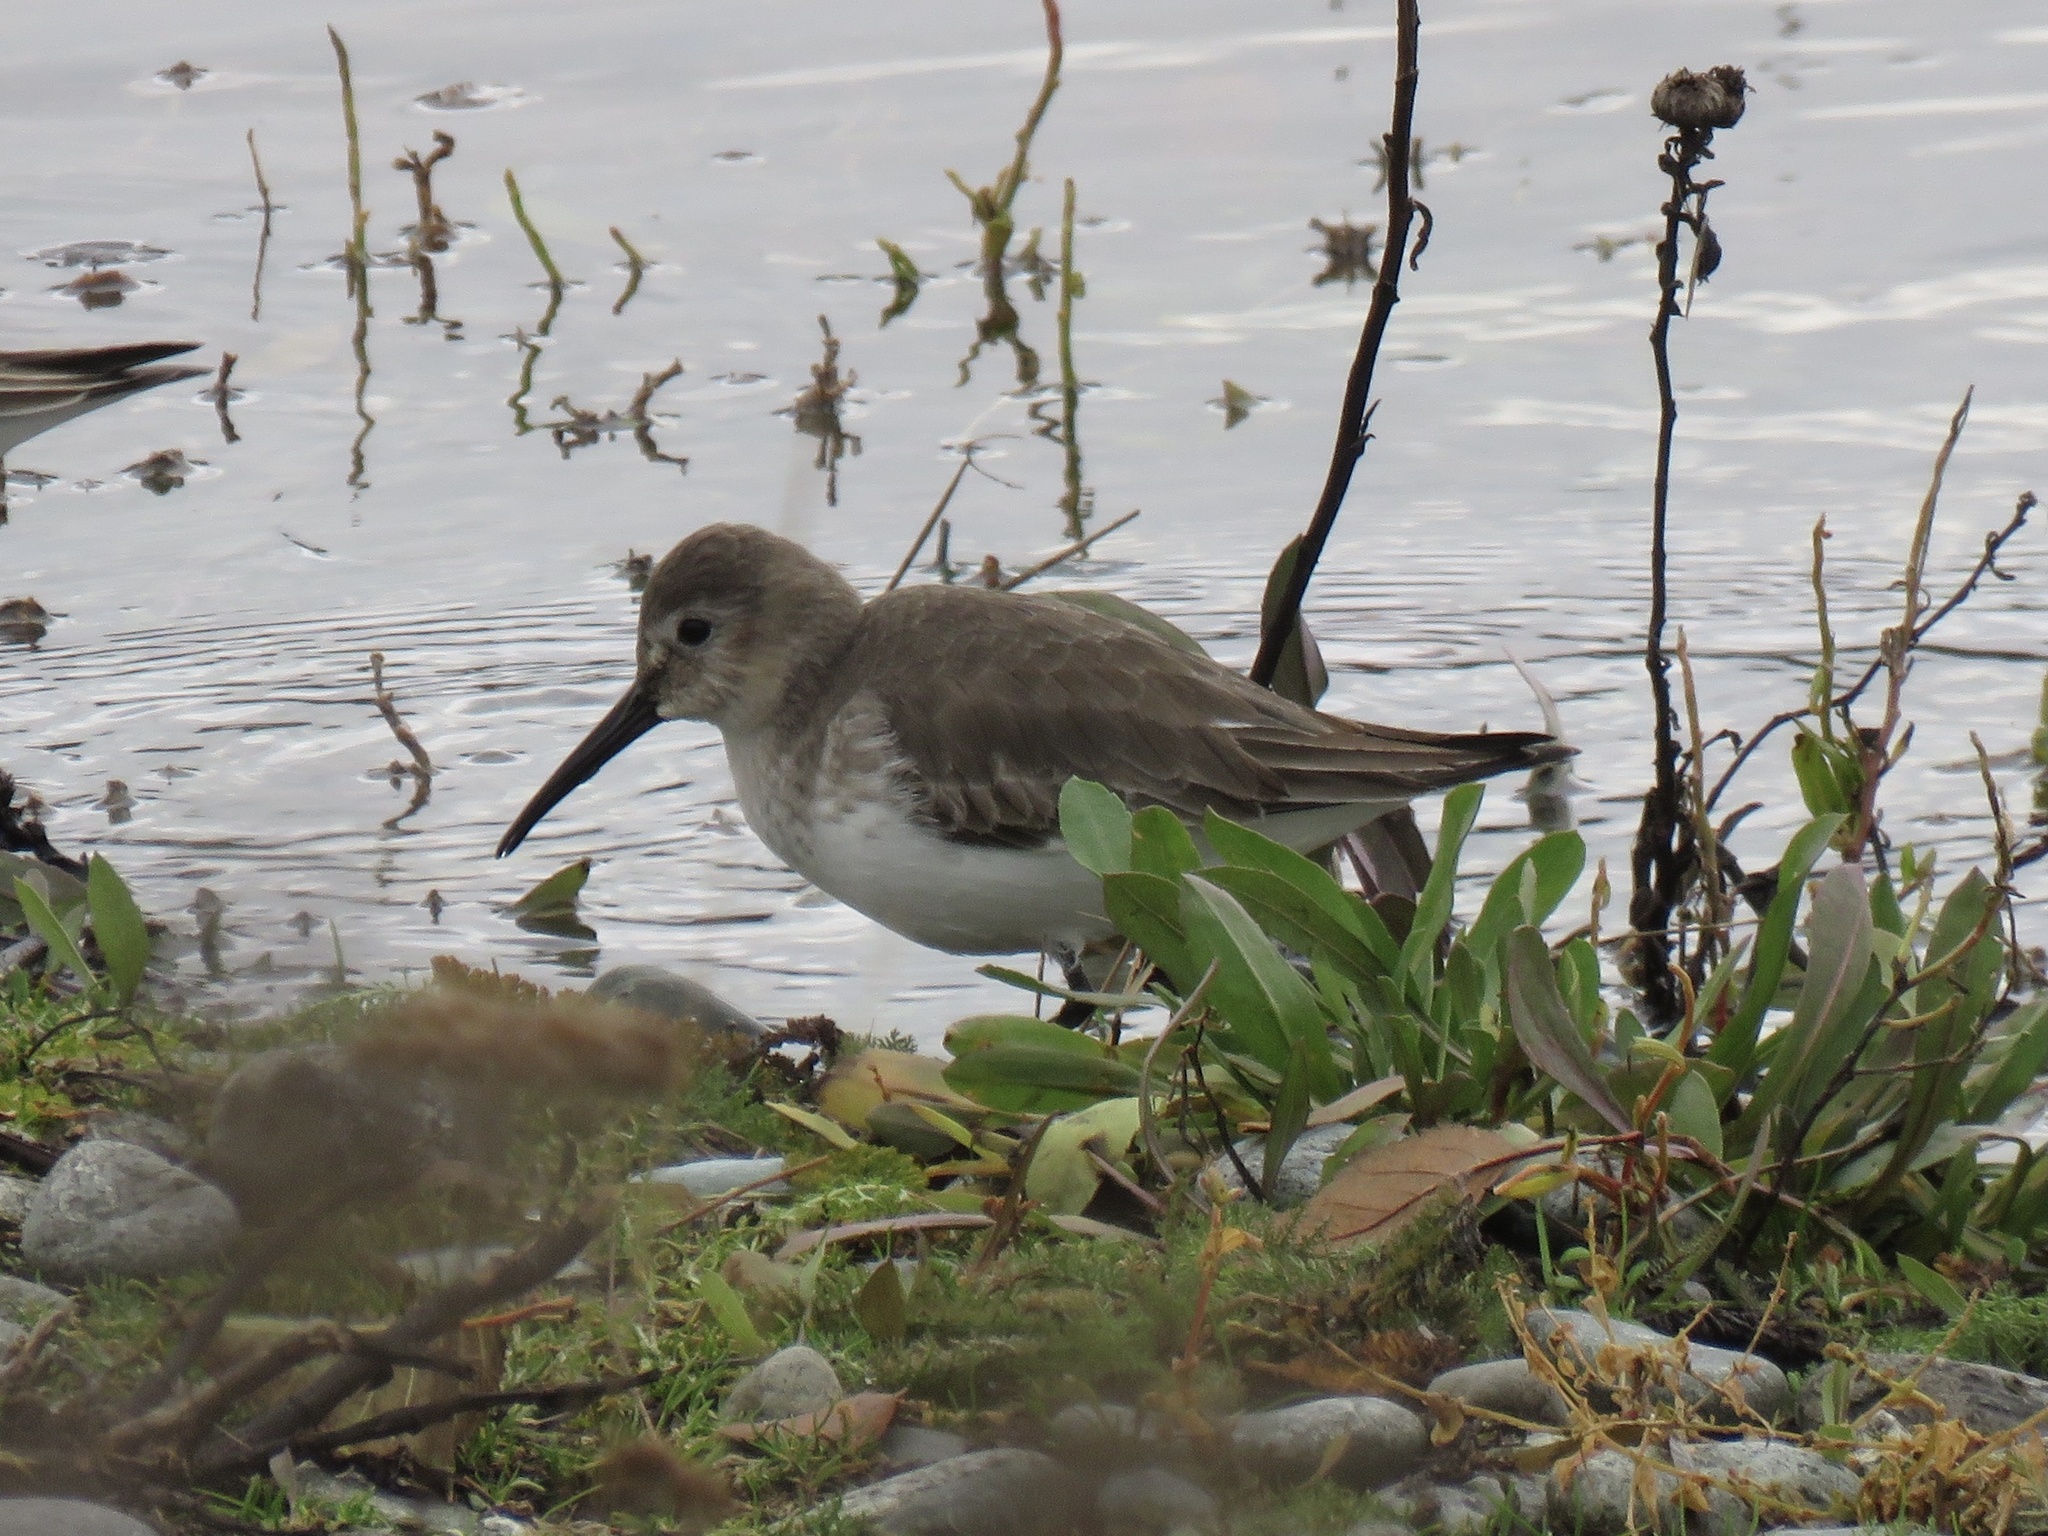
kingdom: Animalia
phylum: Chordata
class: Aves
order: Charadriiformes
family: Scolopacidae
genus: Calidris
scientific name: Calidris alpina
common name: Dunlin
